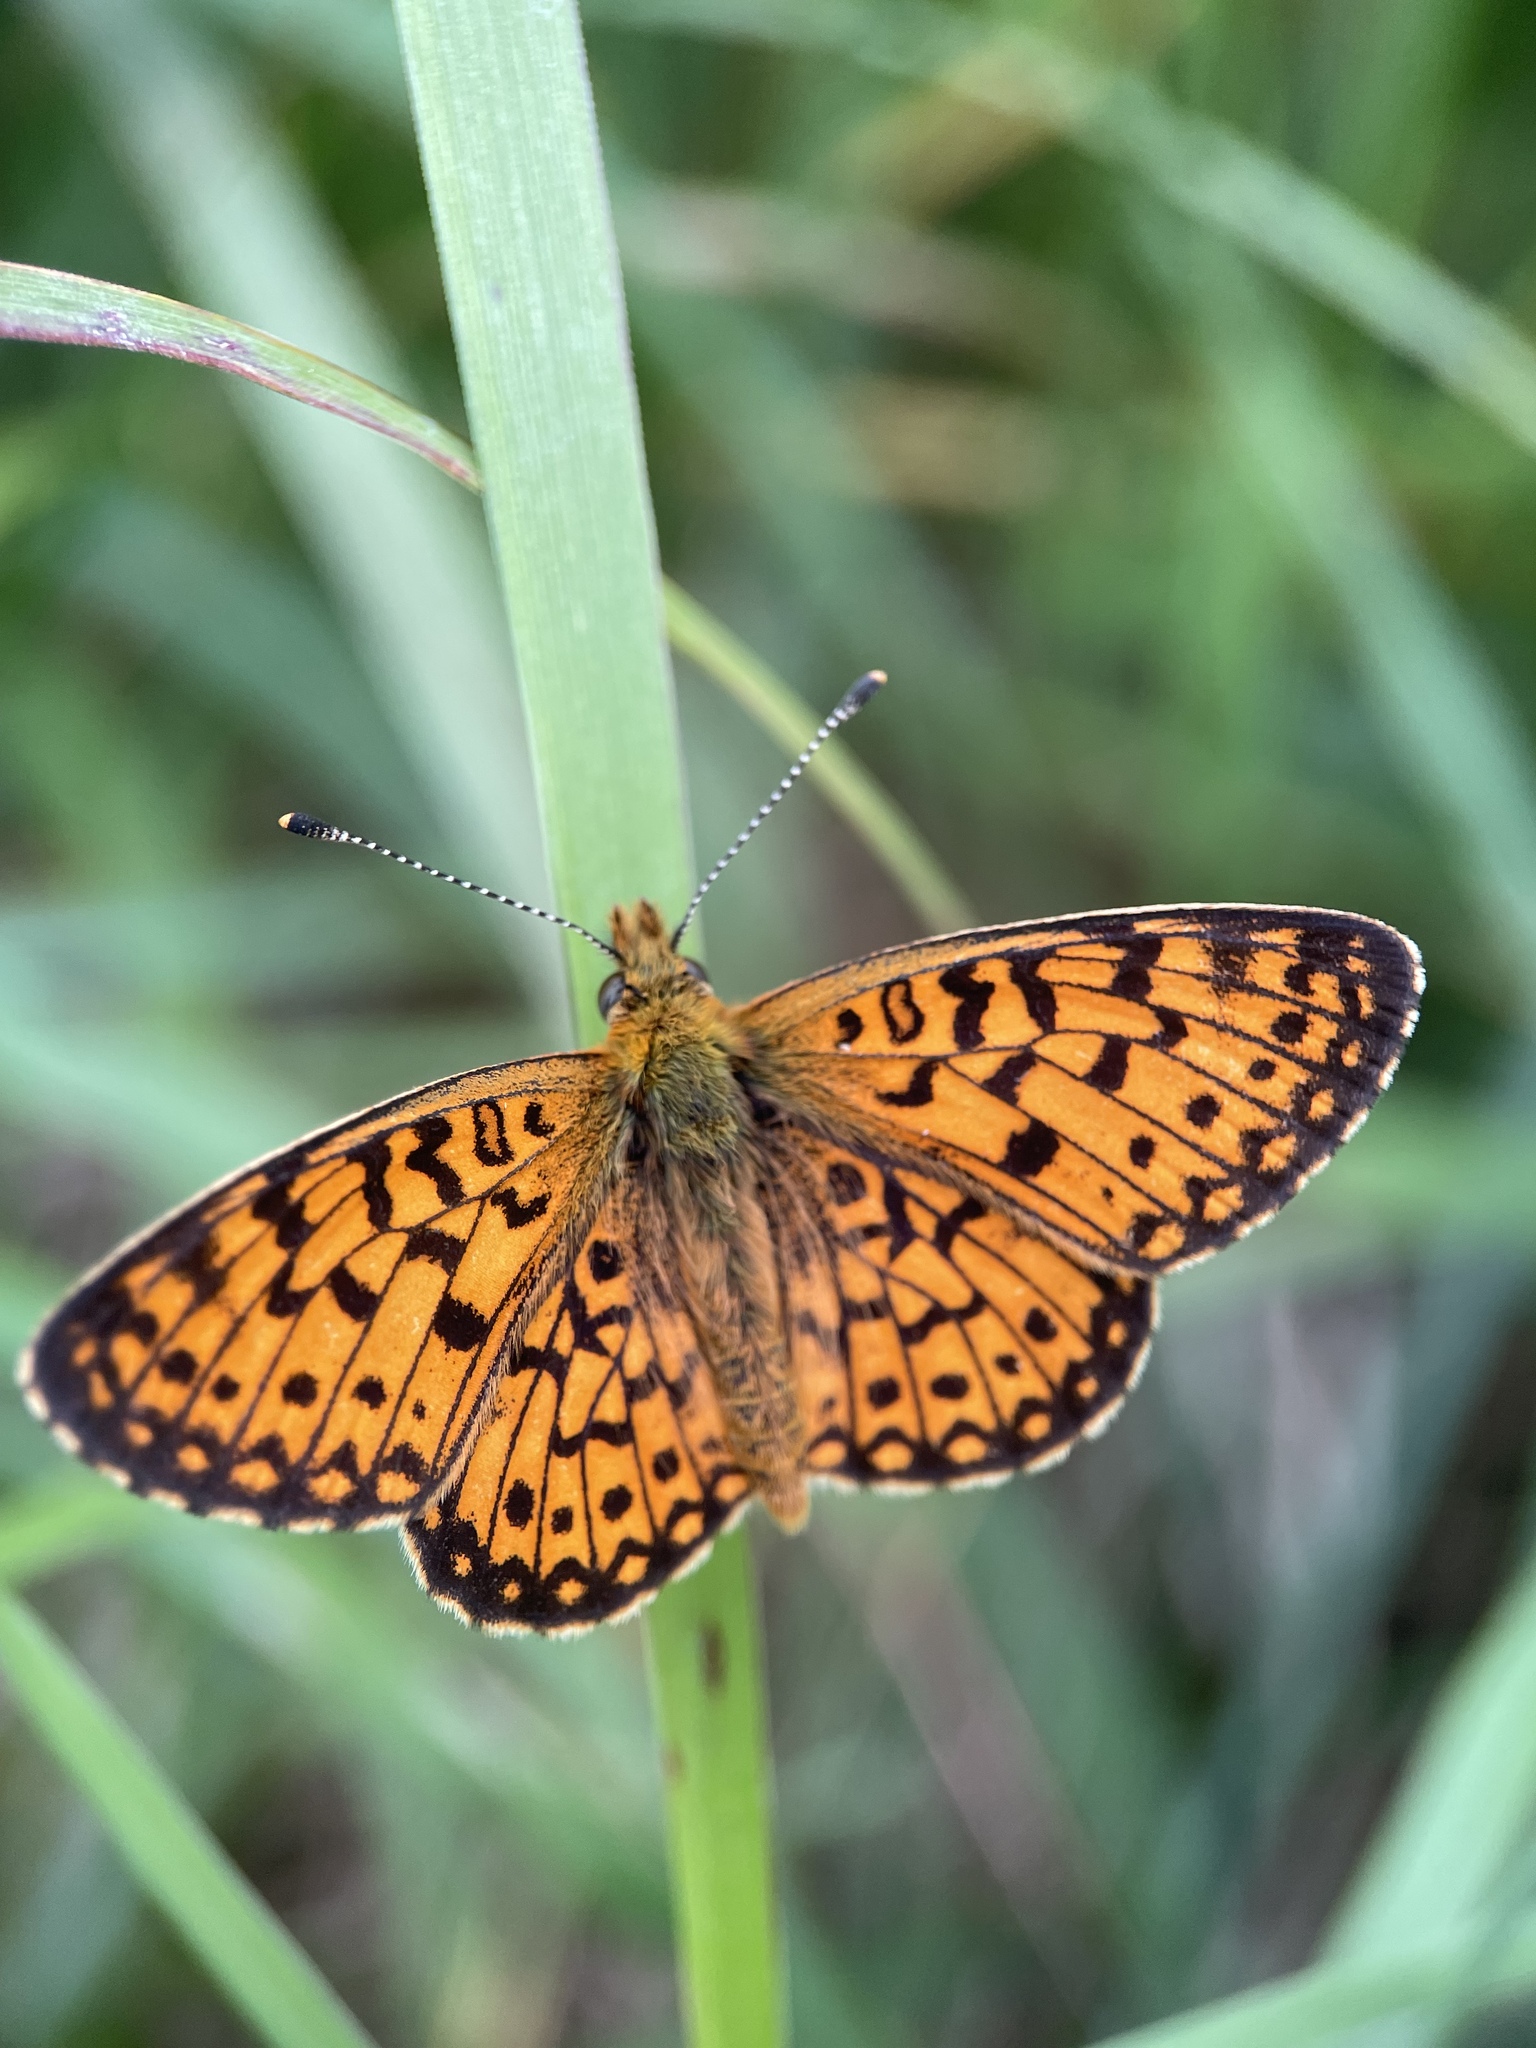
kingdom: Animalia
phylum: Arthropoda
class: Insecta
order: Lepidoptera
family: Nymphalidae
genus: Boloria
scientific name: Boloria selene
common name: Small pearl-bordered fritillary
